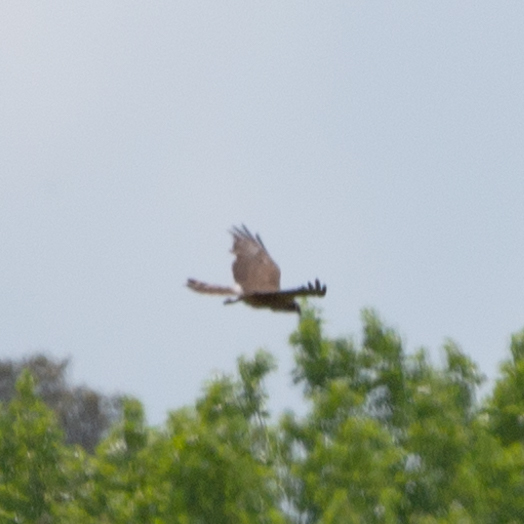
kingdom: Animalia
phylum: Chordata
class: Aves
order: Accipitriformes
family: Accipitridae
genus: Circus
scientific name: Circus pygargus
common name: Montagu's harrier
